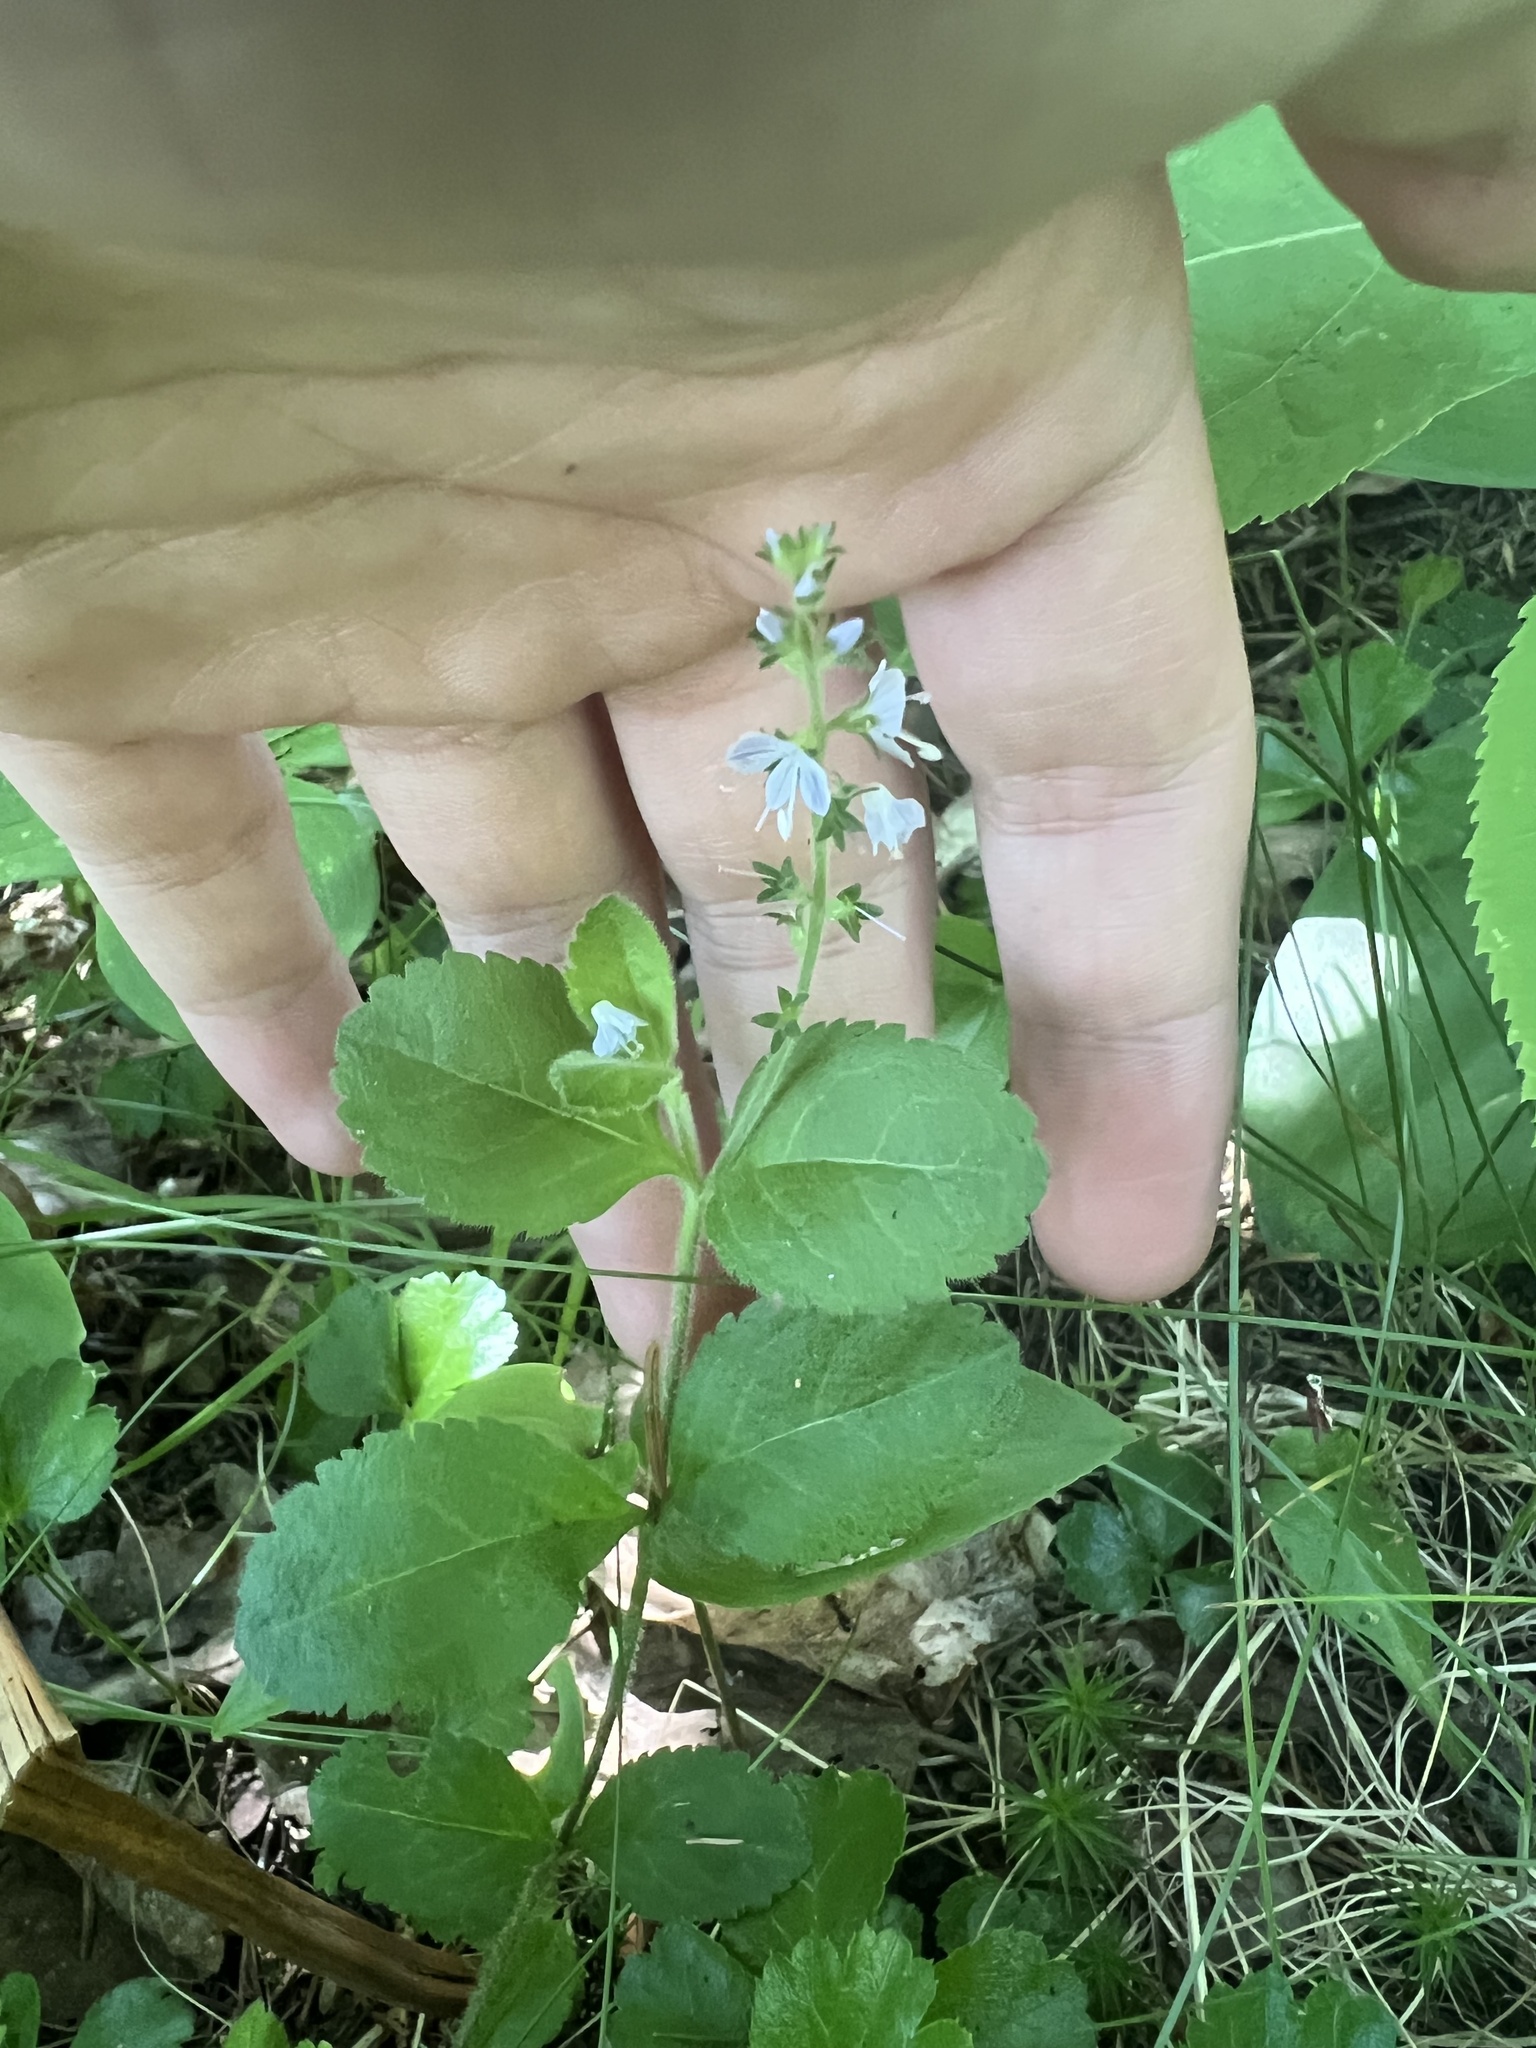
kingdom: Plantae
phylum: Tracheophyta
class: Magnoliopsida
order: Lamiales
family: Plantaginaceae
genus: Veronica
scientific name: Veronica officinalis
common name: Common speedwell
